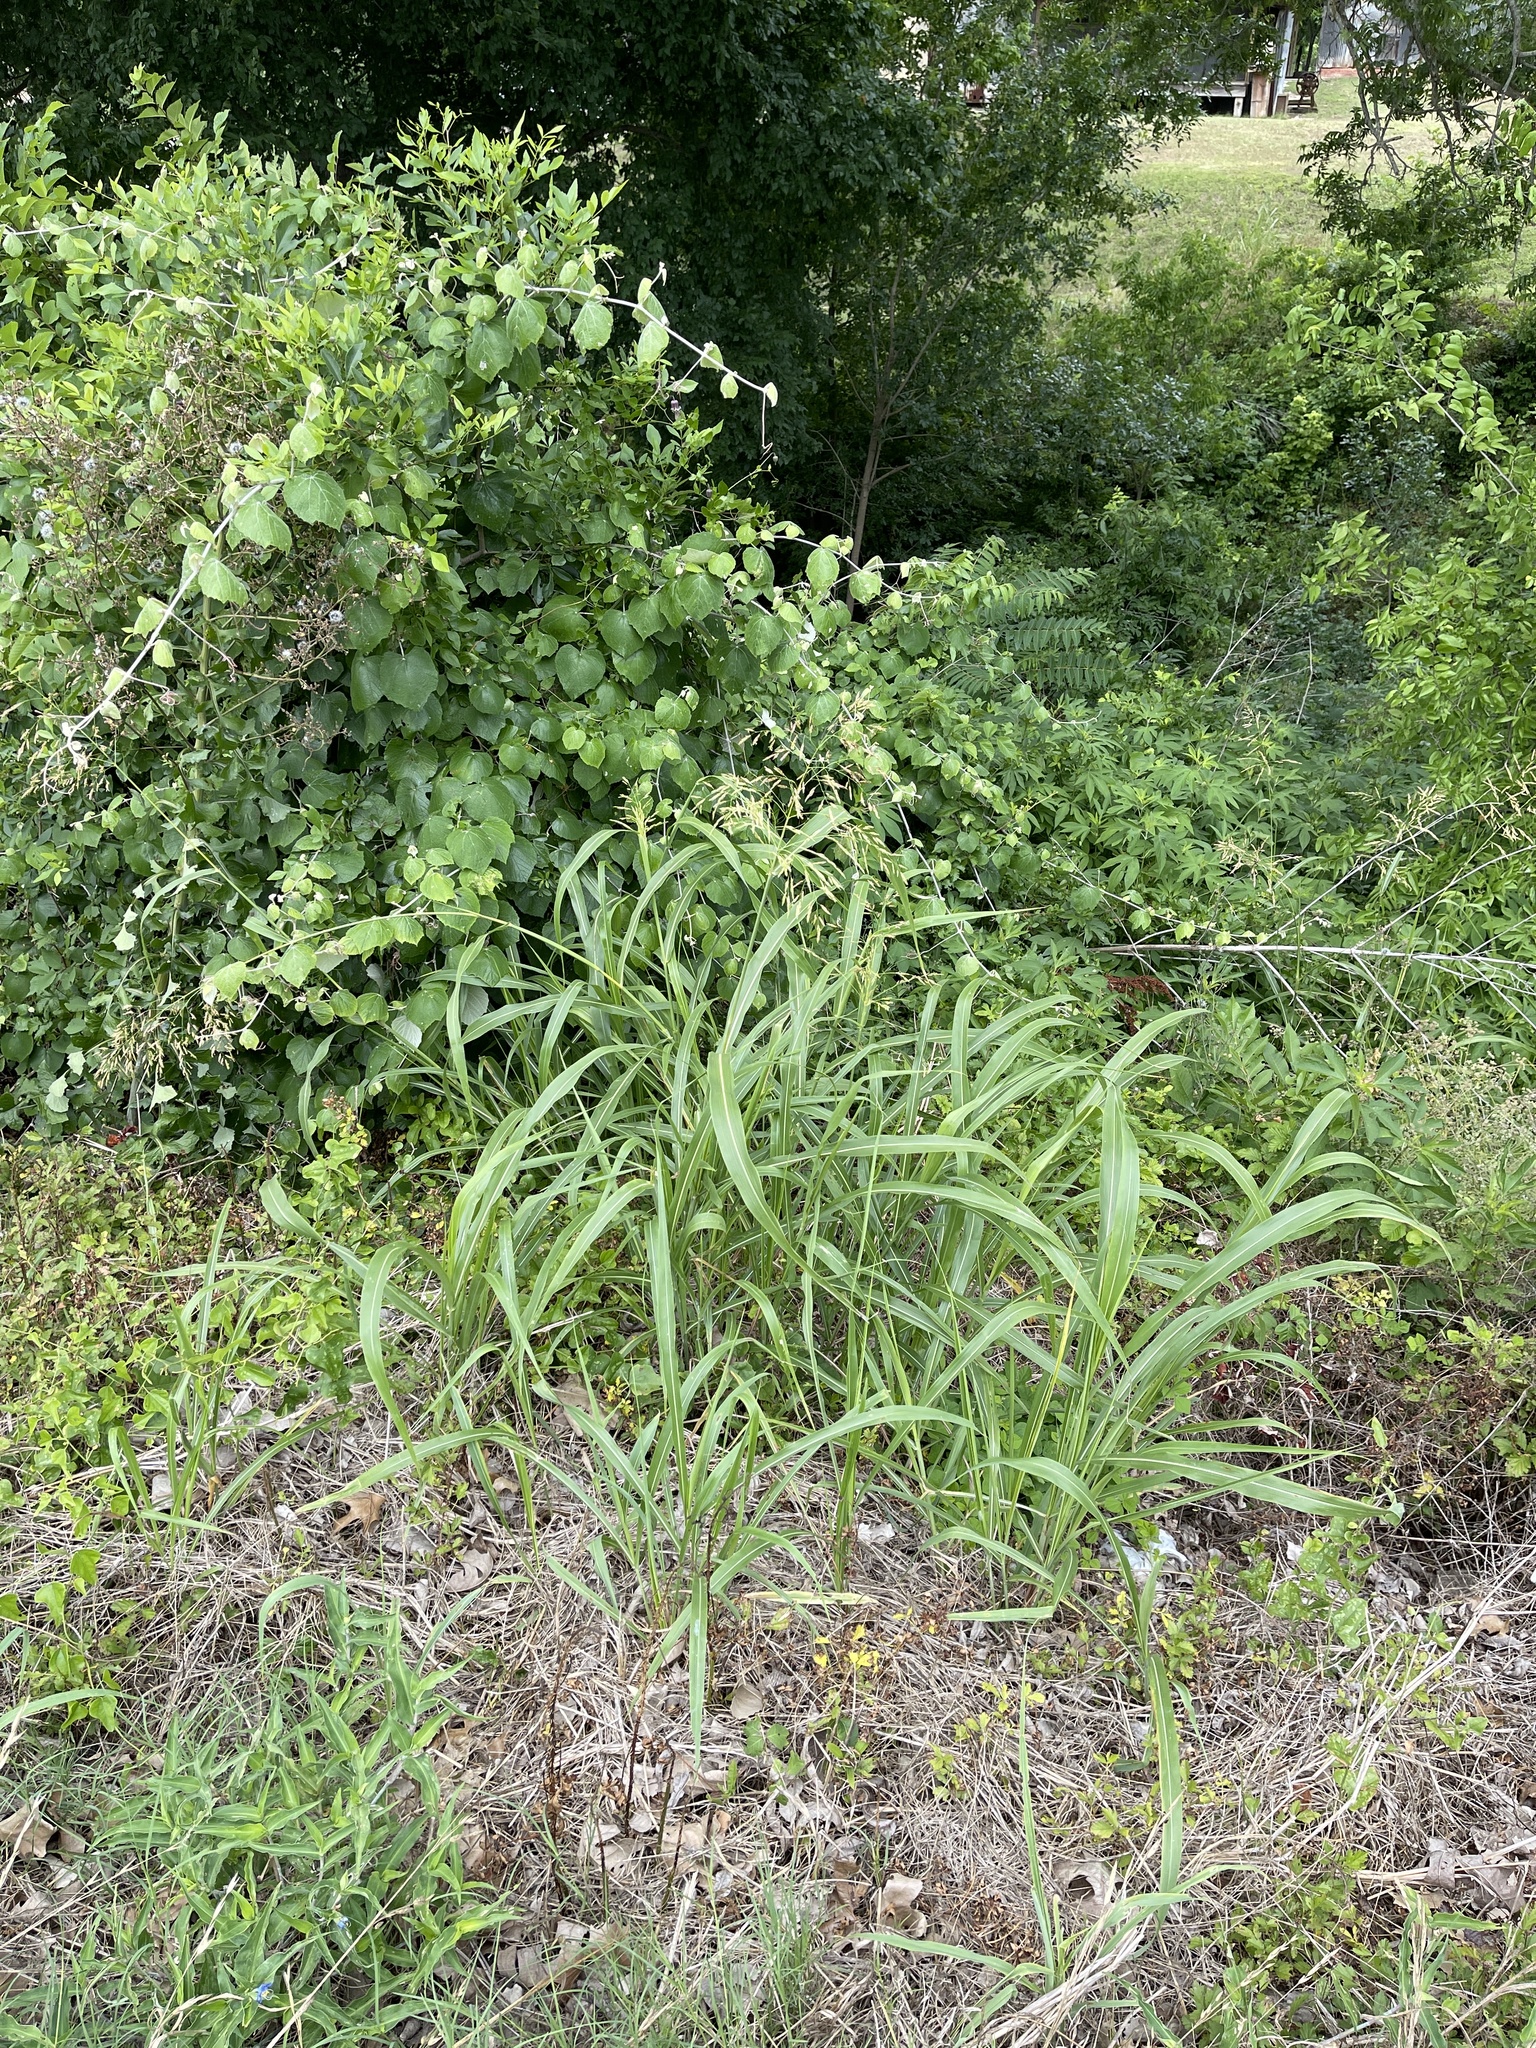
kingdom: Plantae
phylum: Tracheophyta
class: Liliopsida
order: Poales
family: Poaceae
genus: Sorghum
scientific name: Sorghum halepense
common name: Johnson-grass
